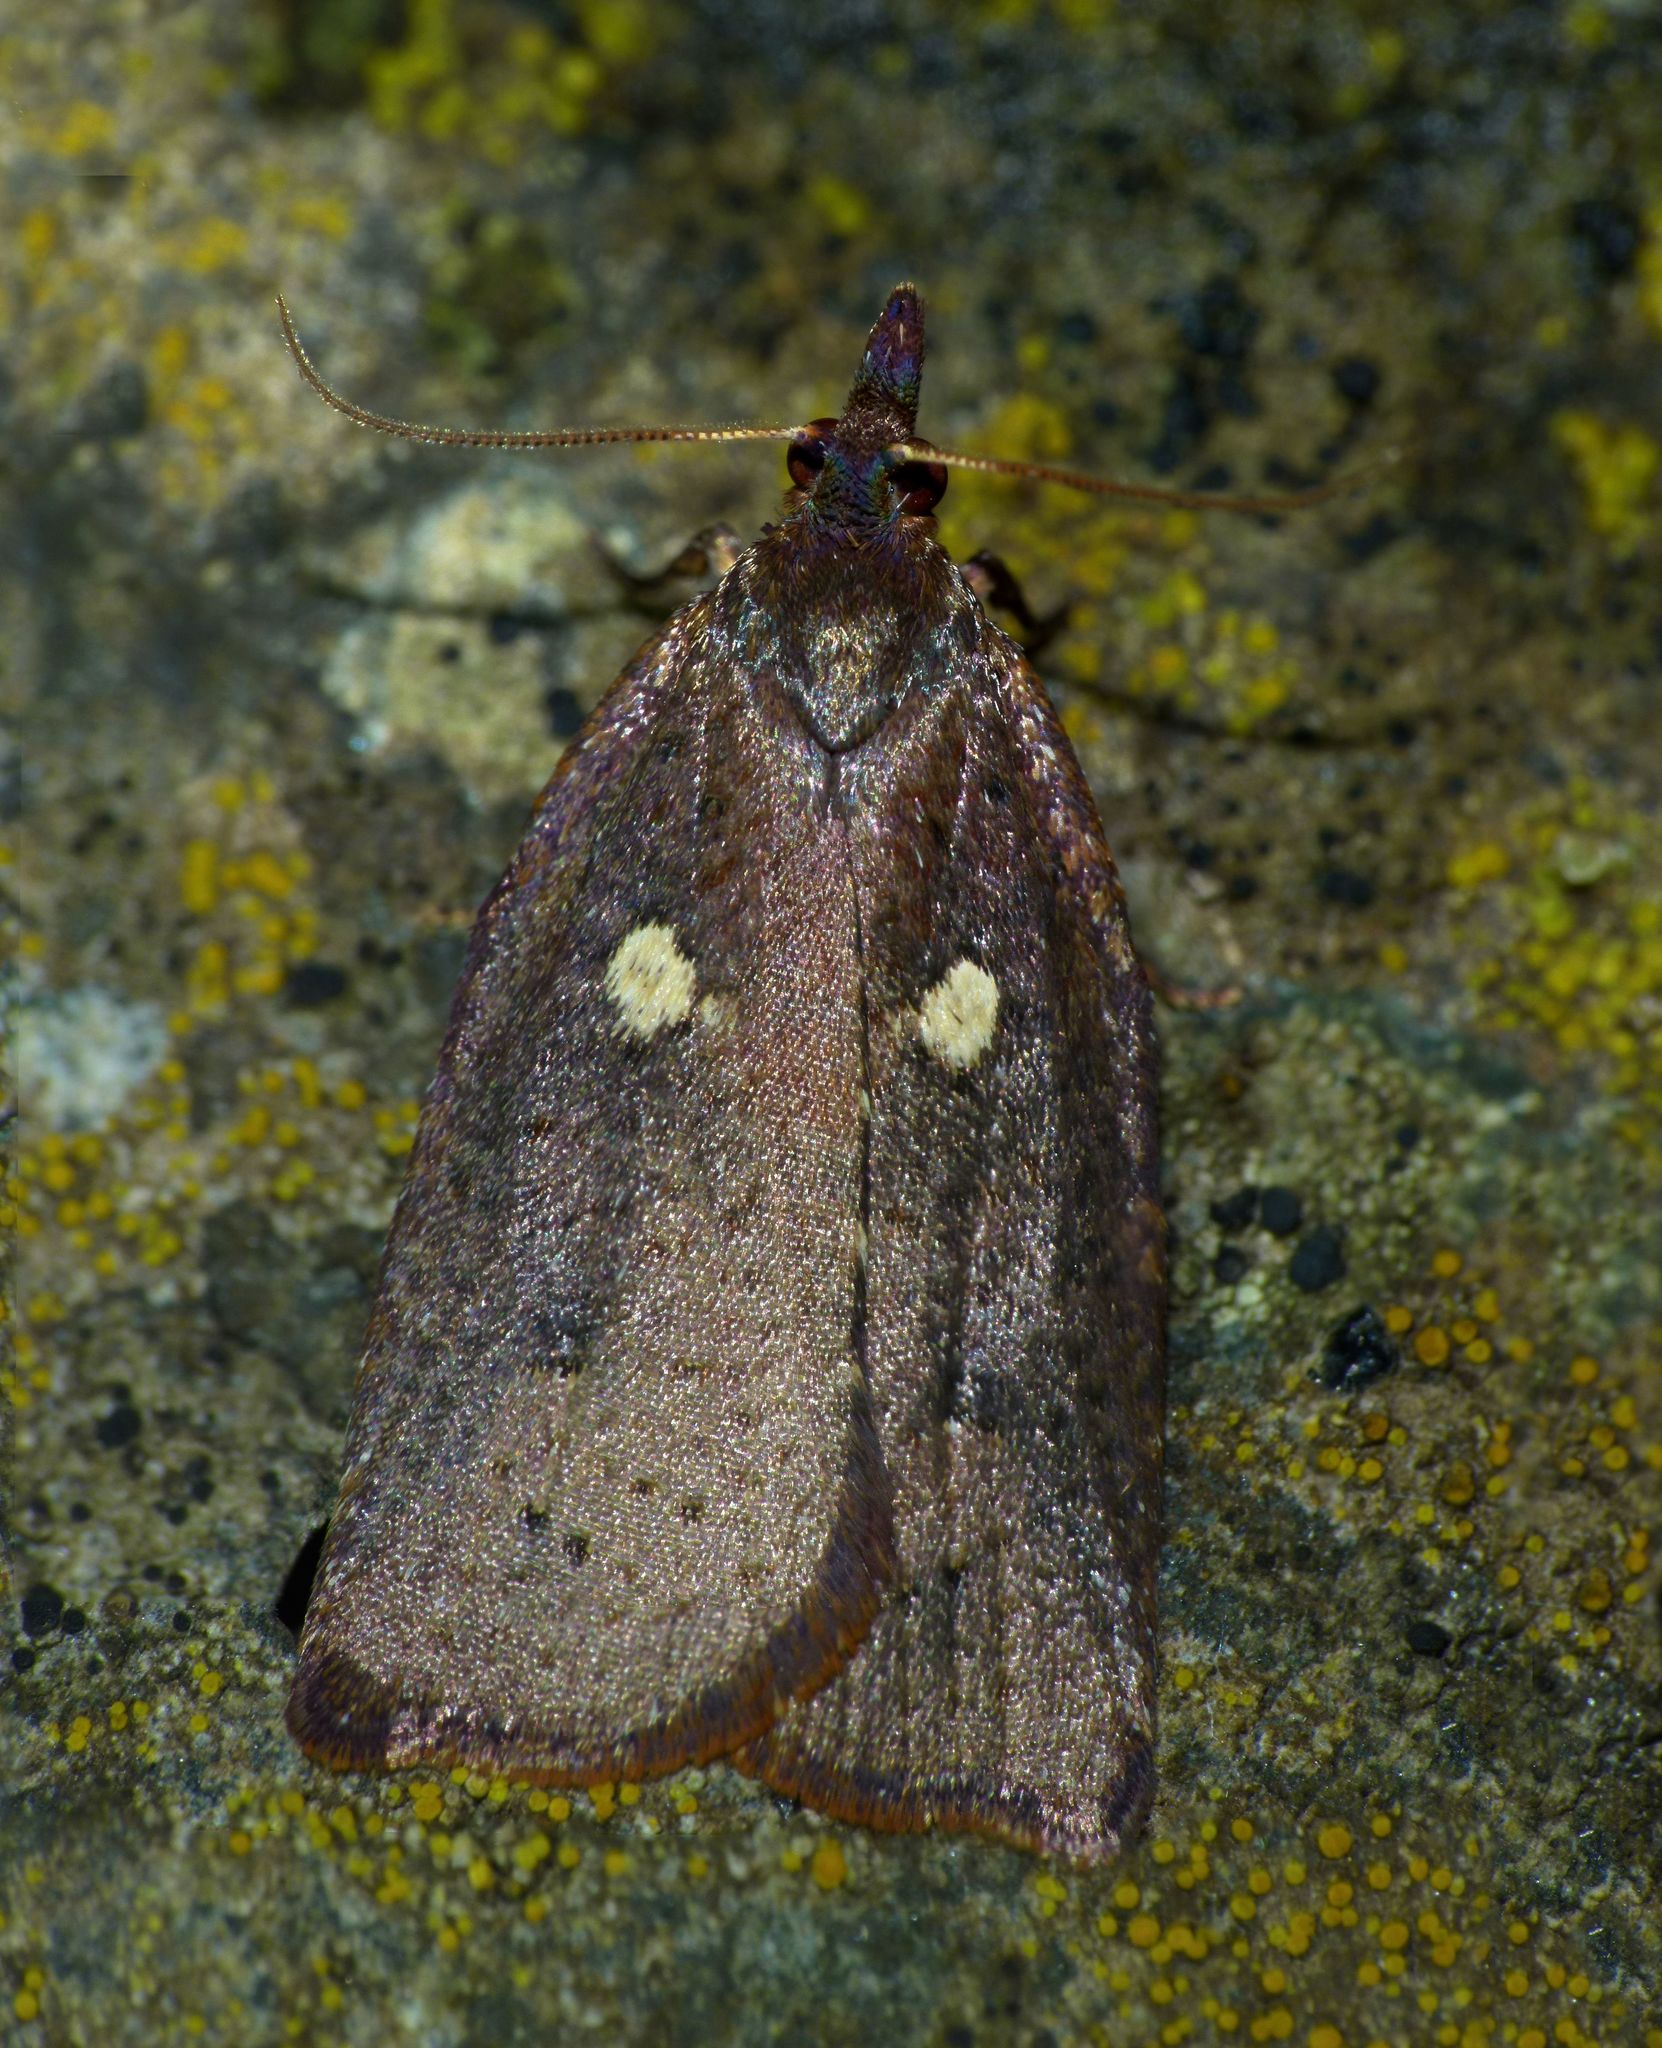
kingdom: Animalia
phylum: Arthropoda
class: Insecta
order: Lepidoptera
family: Tortricidae
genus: Planotortrix
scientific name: Planotortrix excessana
